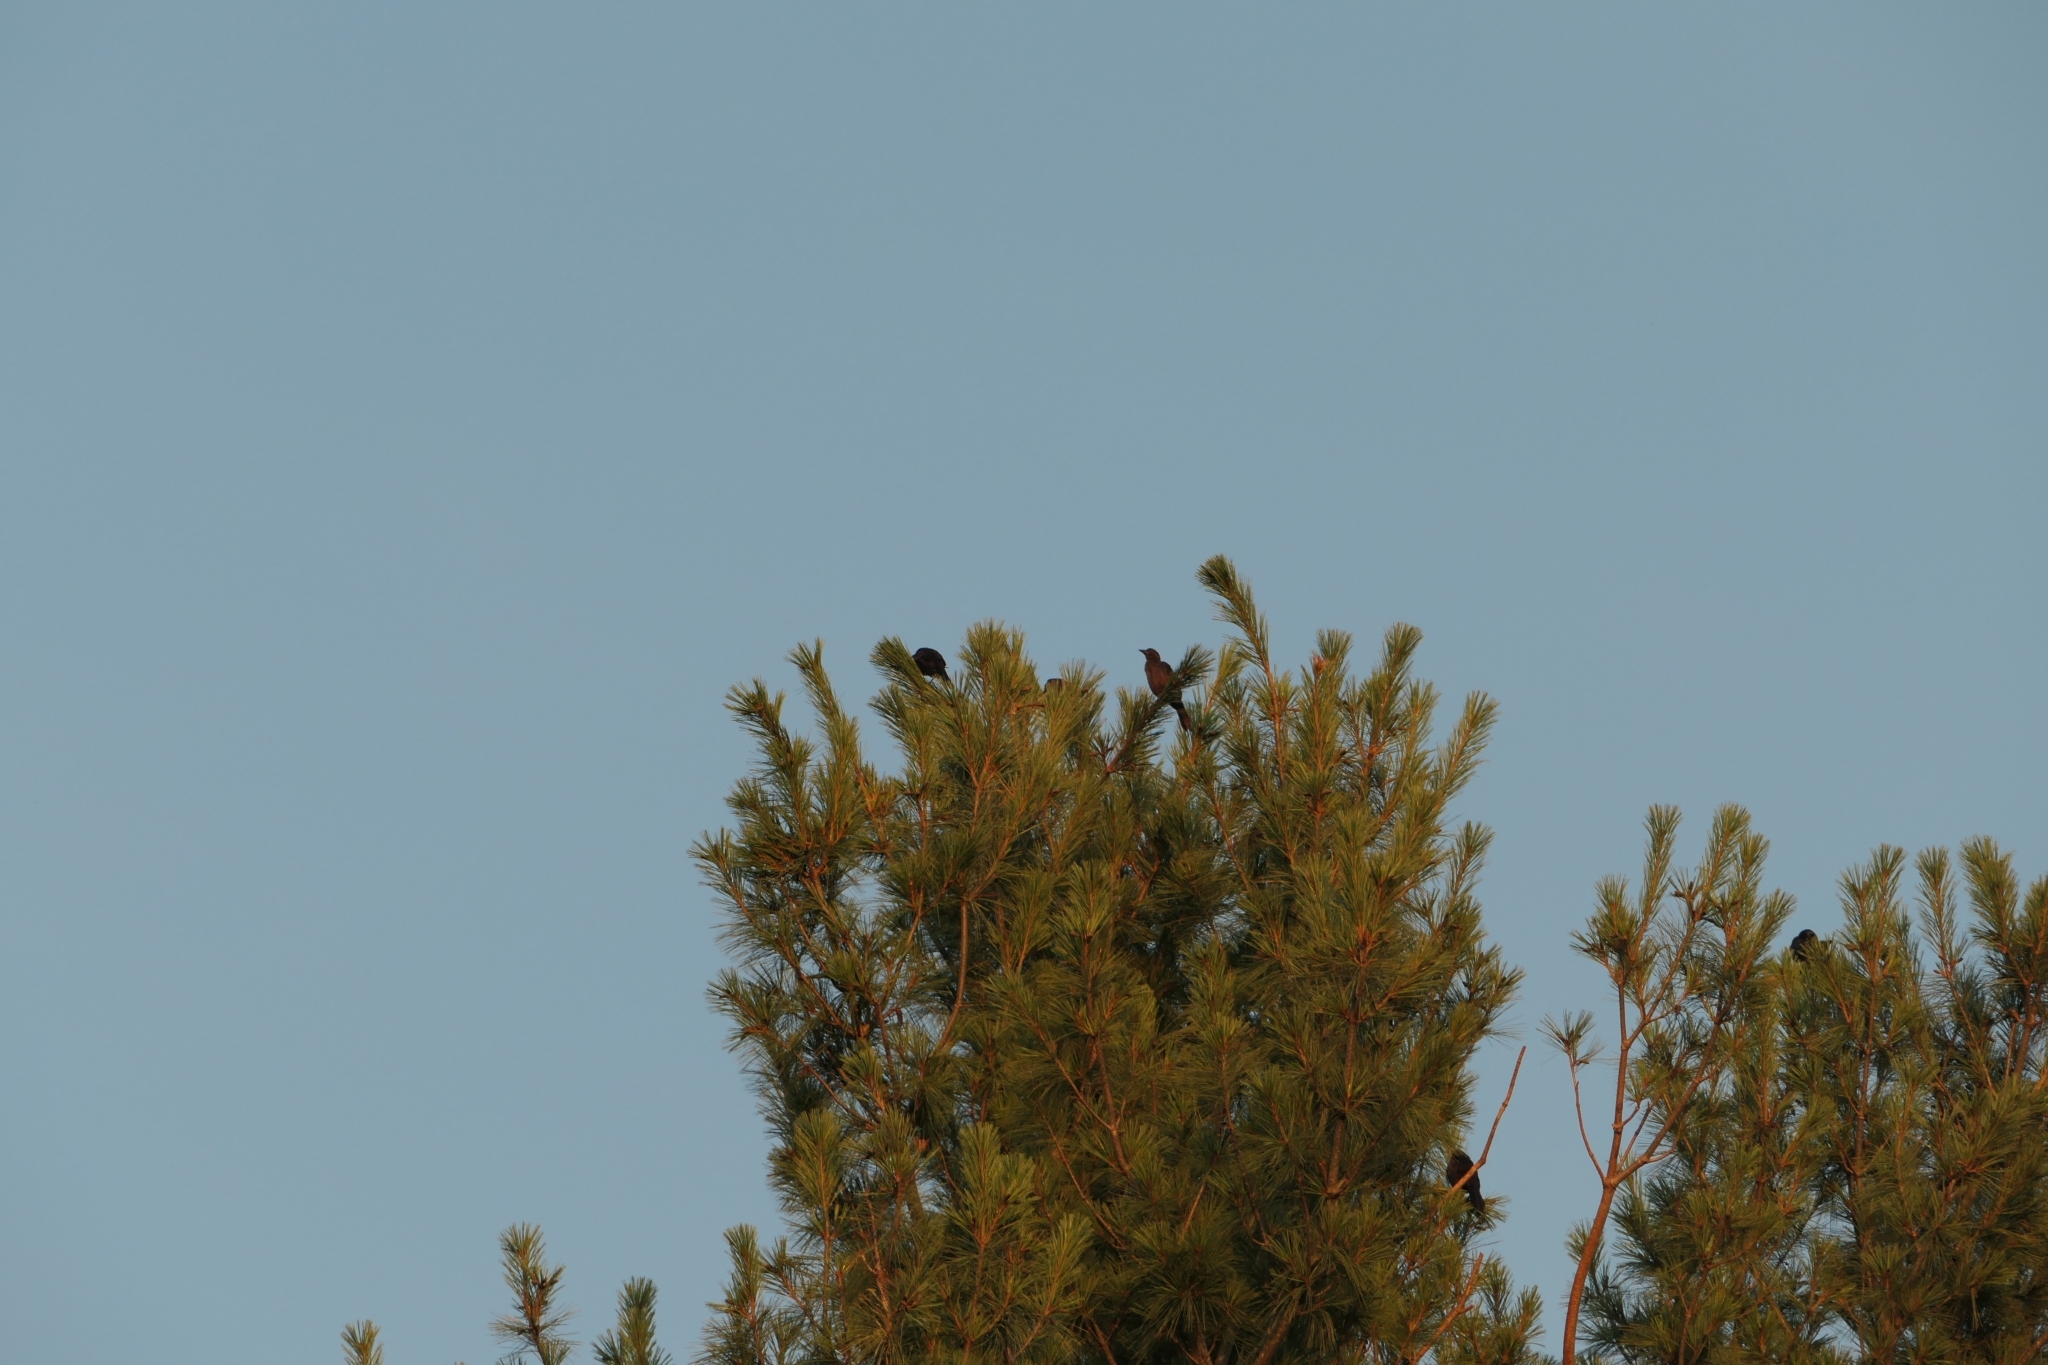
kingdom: Animalia
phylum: Chordata
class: Aves
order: Passeriformes
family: Icteridae
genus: Quiscalus
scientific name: Quiscalus quiscula
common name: Common grackle
